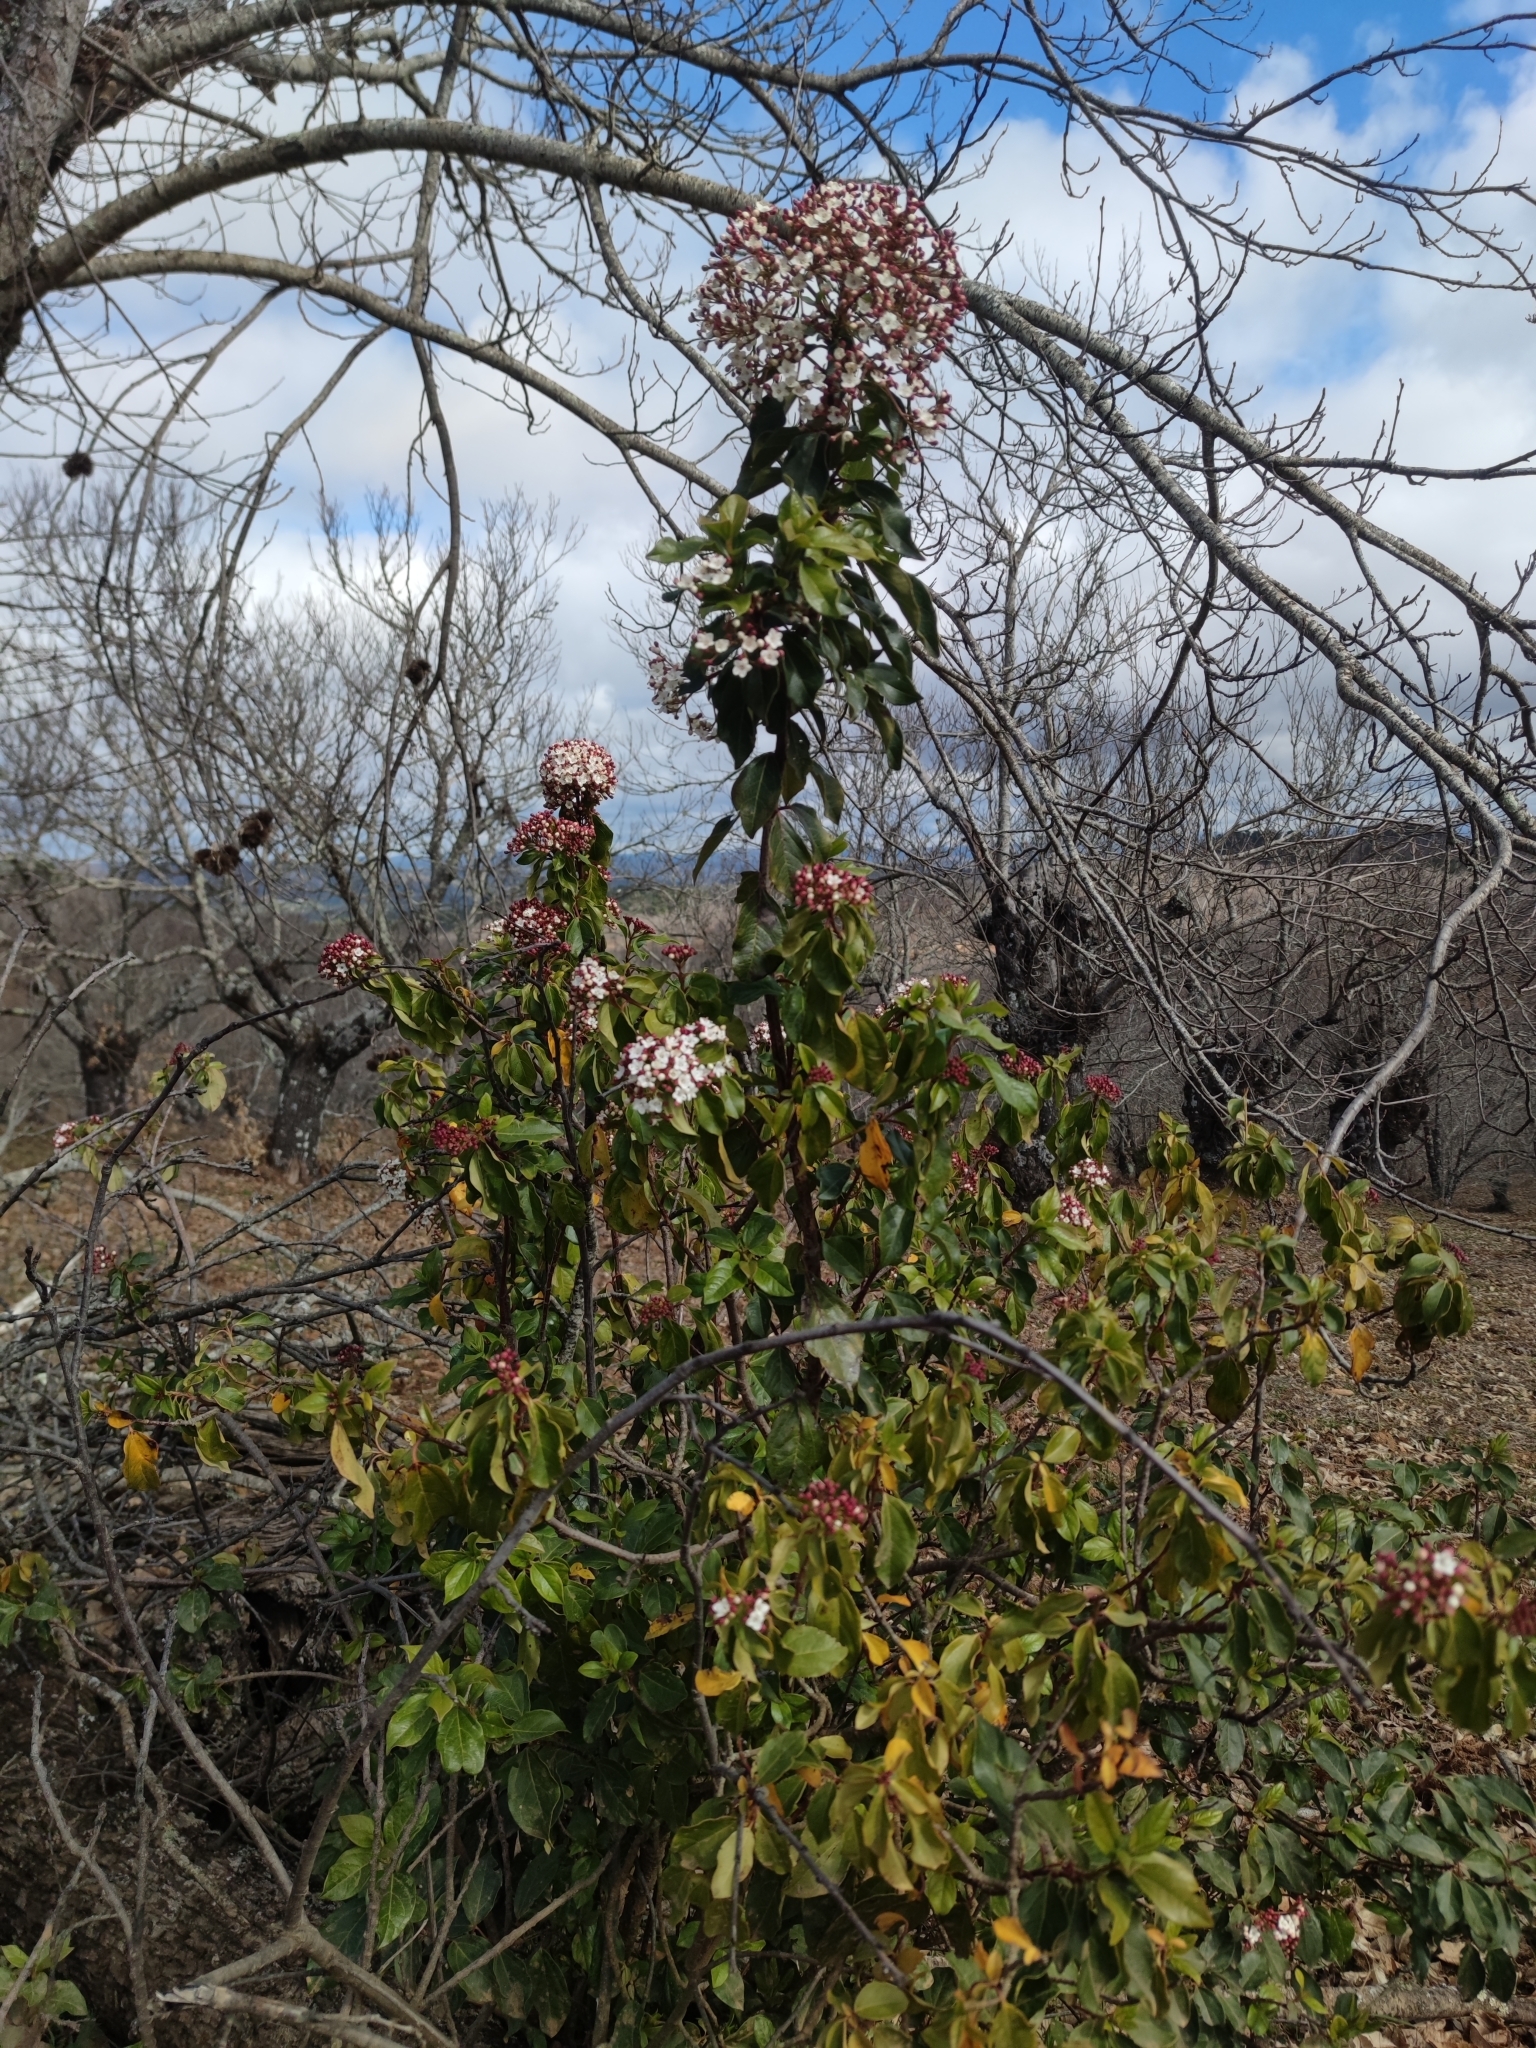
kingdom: Plantae
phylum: Tracheophyta
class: Magnoliopsida
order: Dipsacales
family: Viburnaceae
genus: Viburnum
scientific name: Viburnum tinus
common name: Laurustinus
